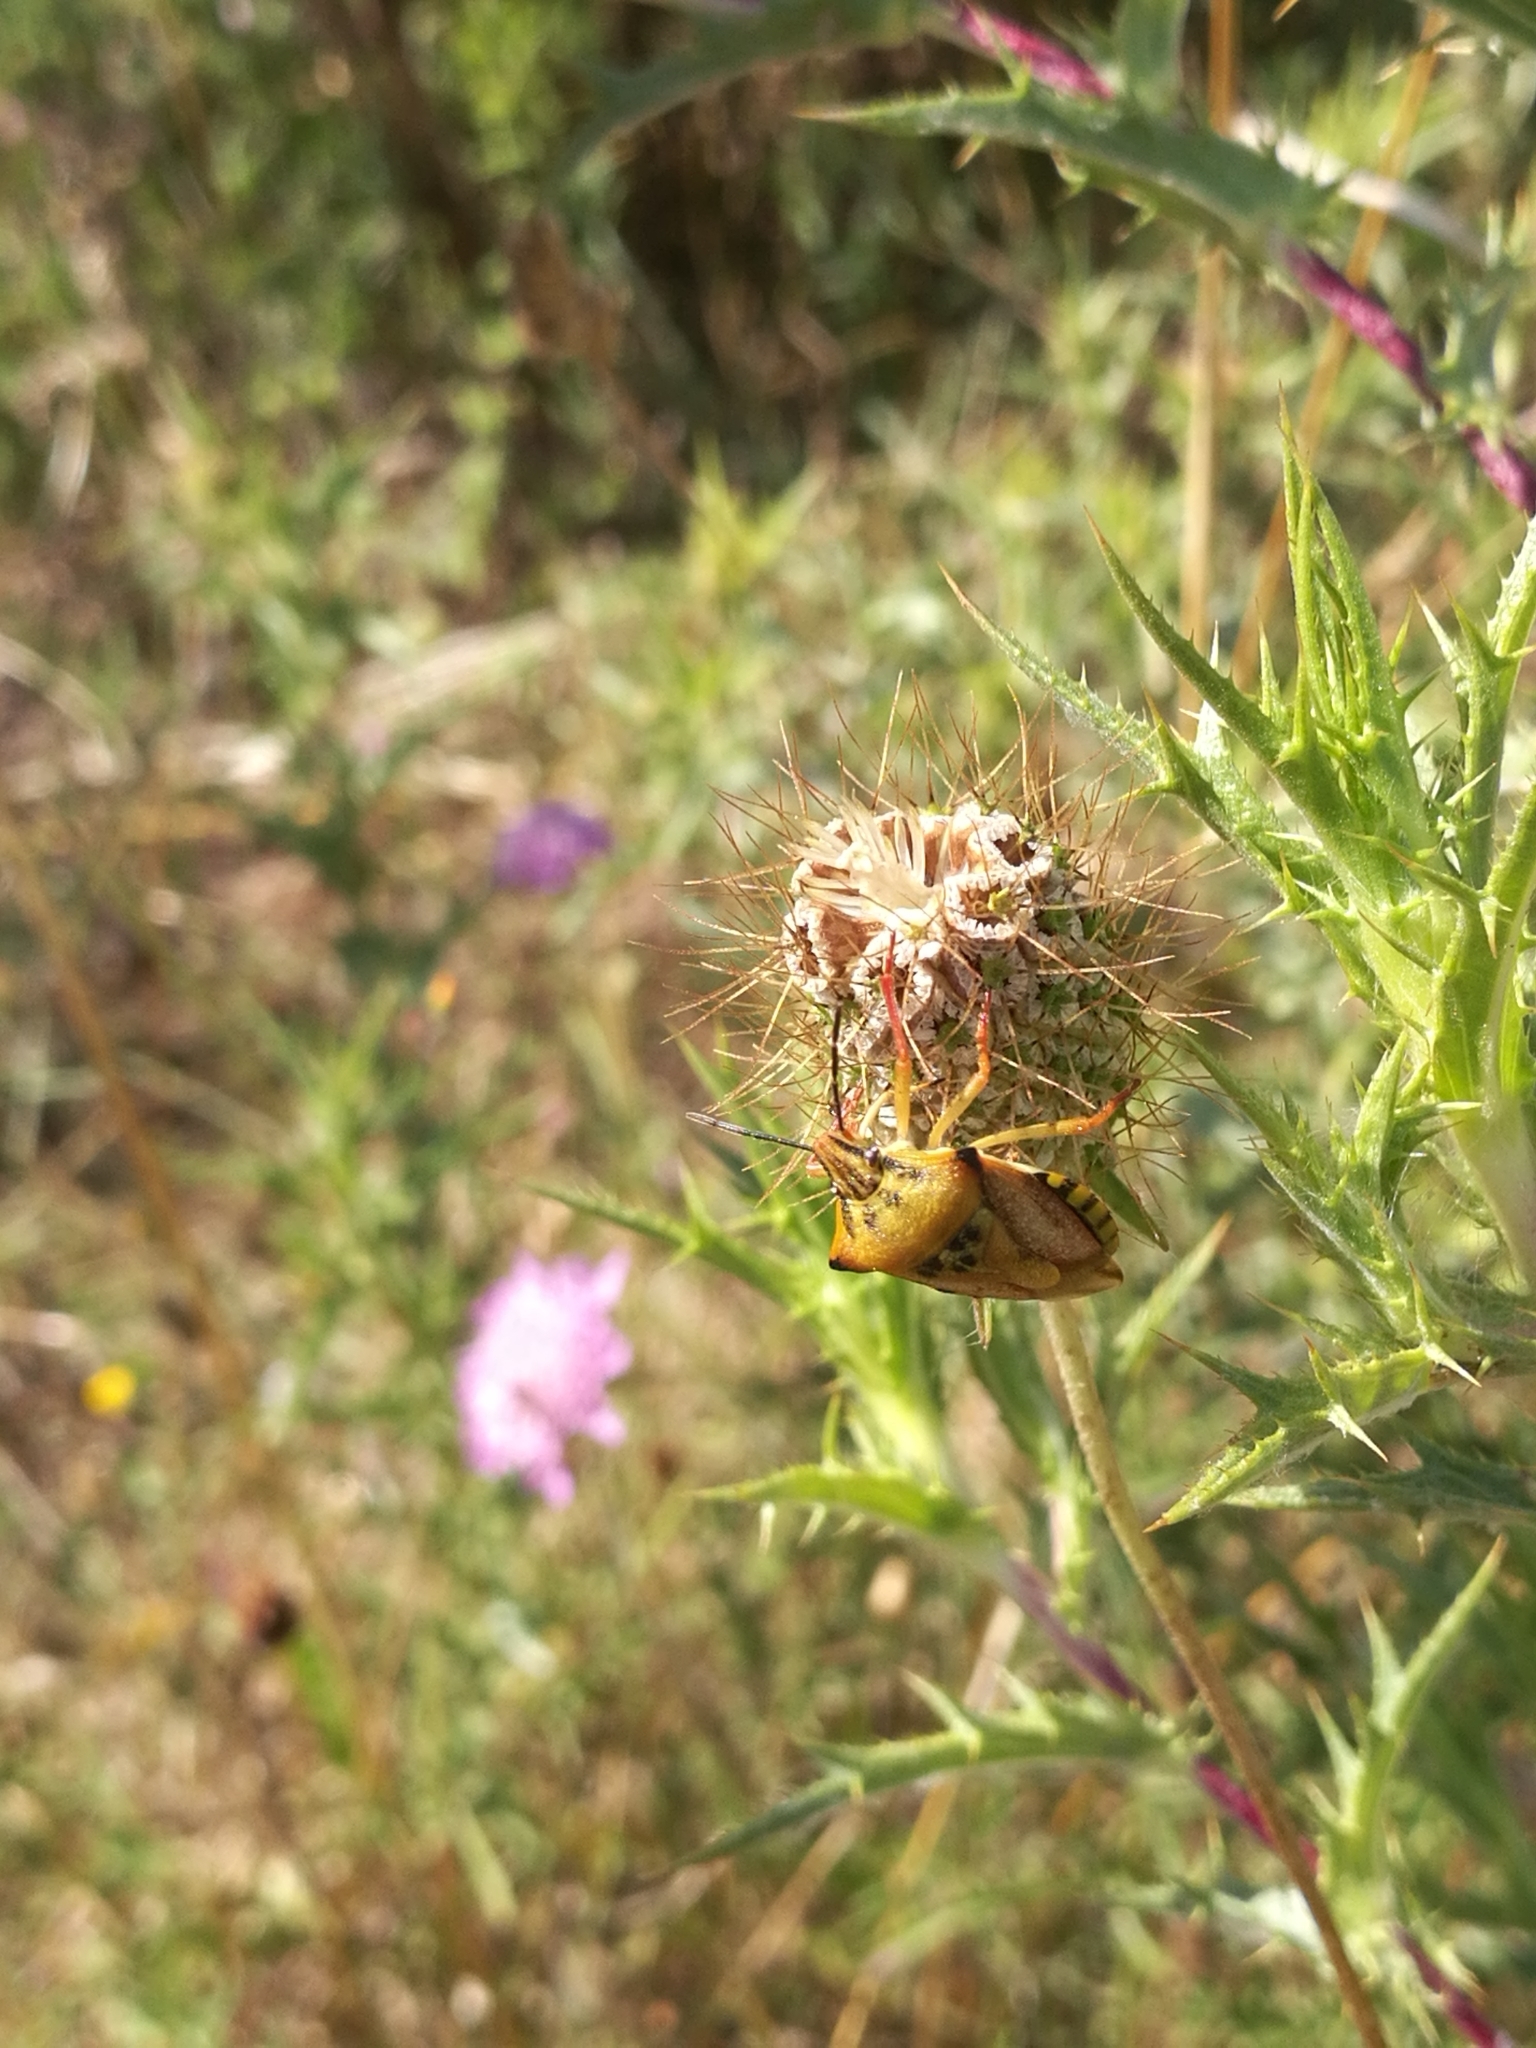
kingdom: Animalia
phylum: Arthropoda
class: Insecta
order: Hemiptera
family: Pentatomidae
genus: Carpocoris
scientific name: Carpocoris mediterraneus
